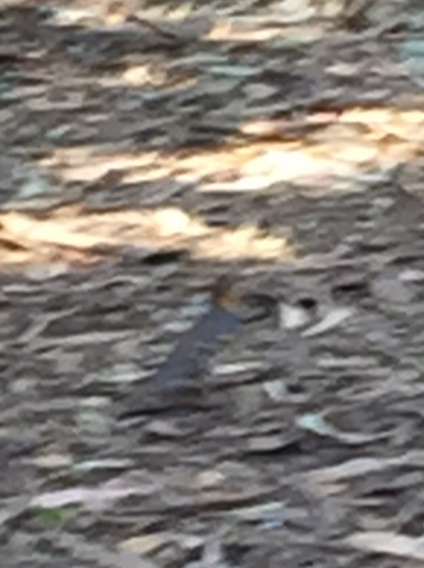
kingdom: Animalia
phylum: Chordata
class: Aves
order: Passeriformes
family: Turdidae
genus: Ixoreus
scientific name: Ixoreus naevius
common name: Varied thrush
